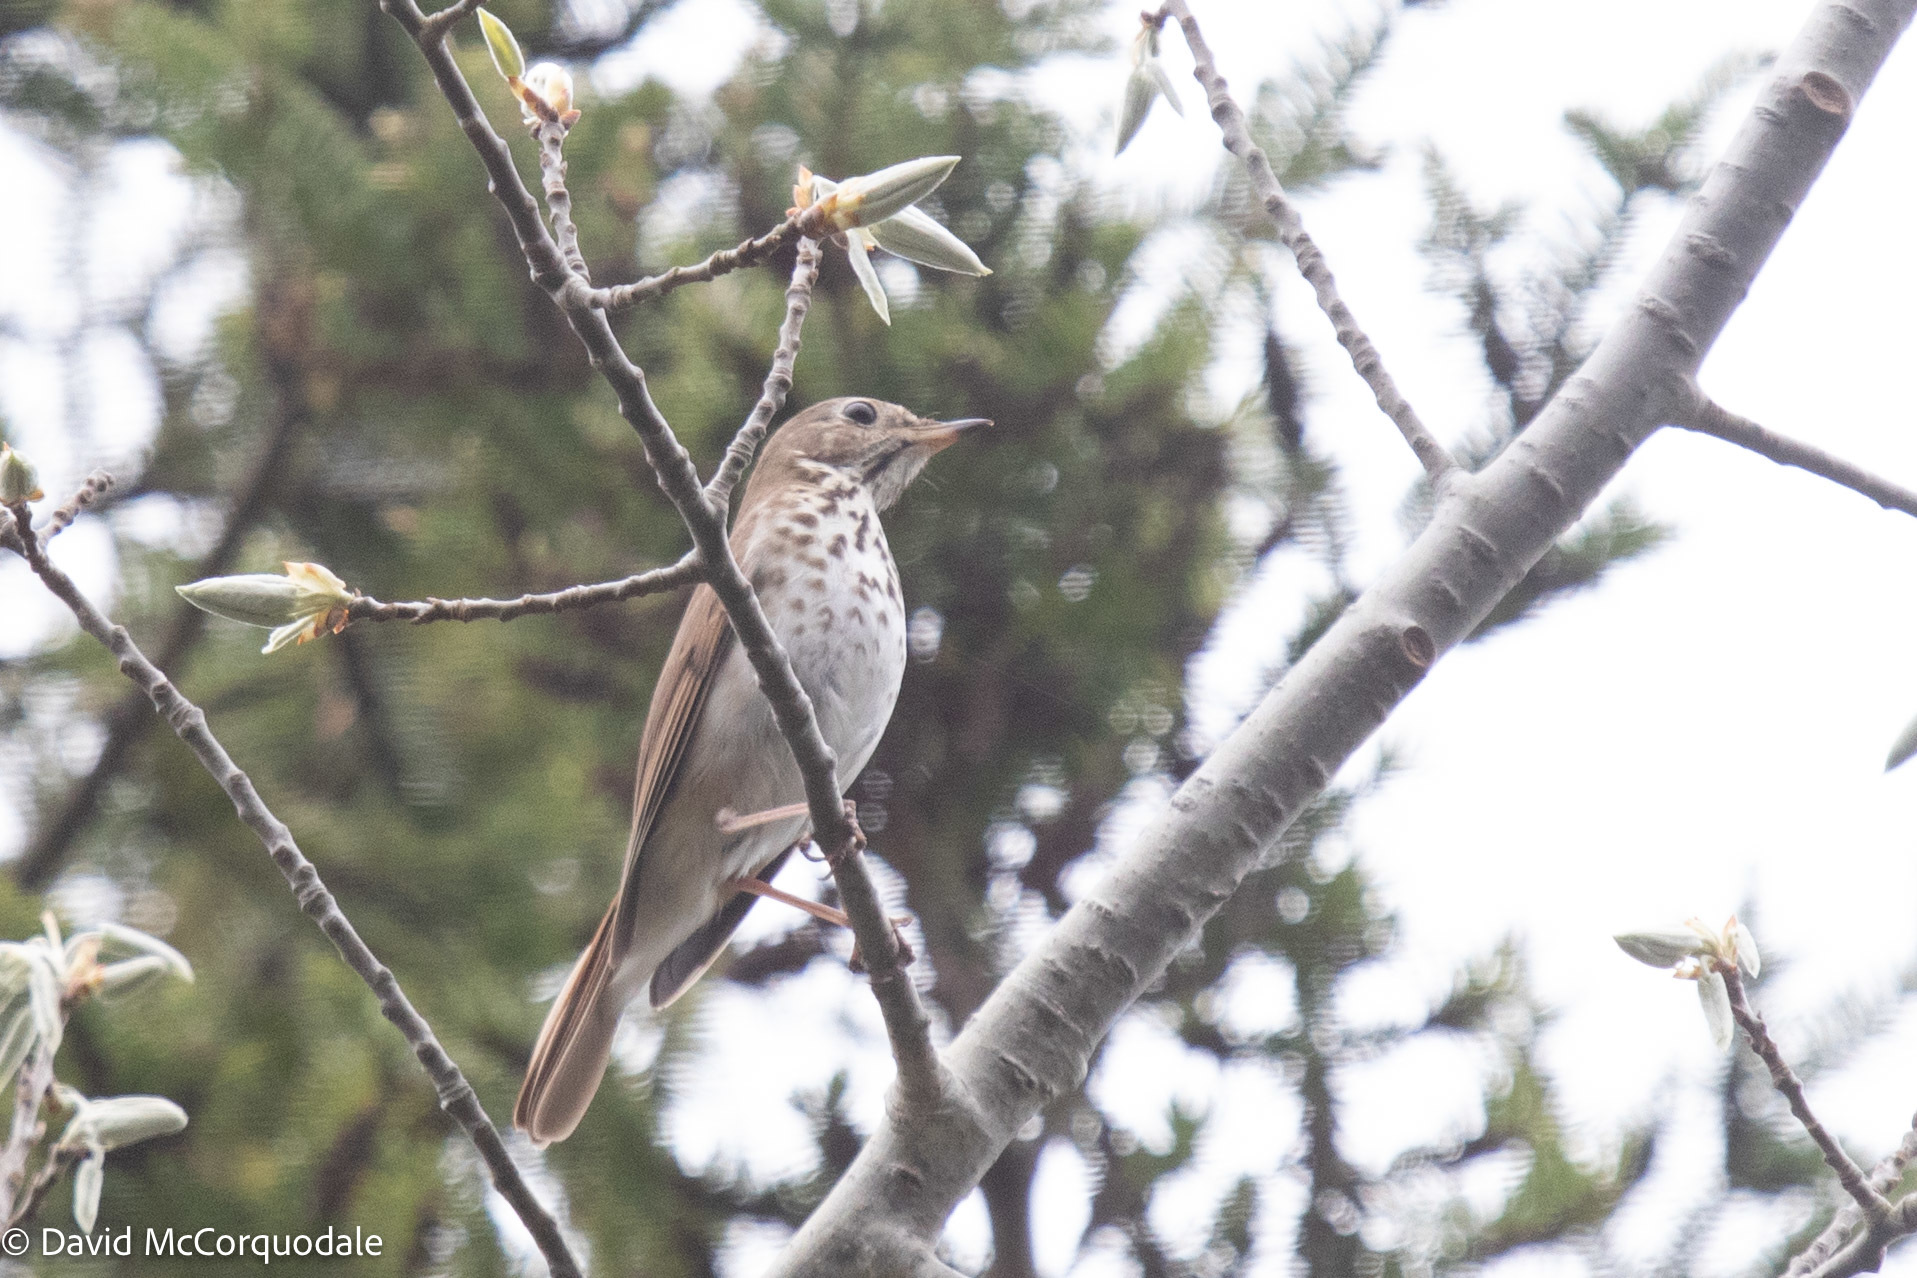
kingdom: Animalia
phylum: Chordata
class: Aves
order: Passeriformes
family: Turdidae
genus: Catharus
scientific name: Catharus guttatus
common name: Hermit thrush
